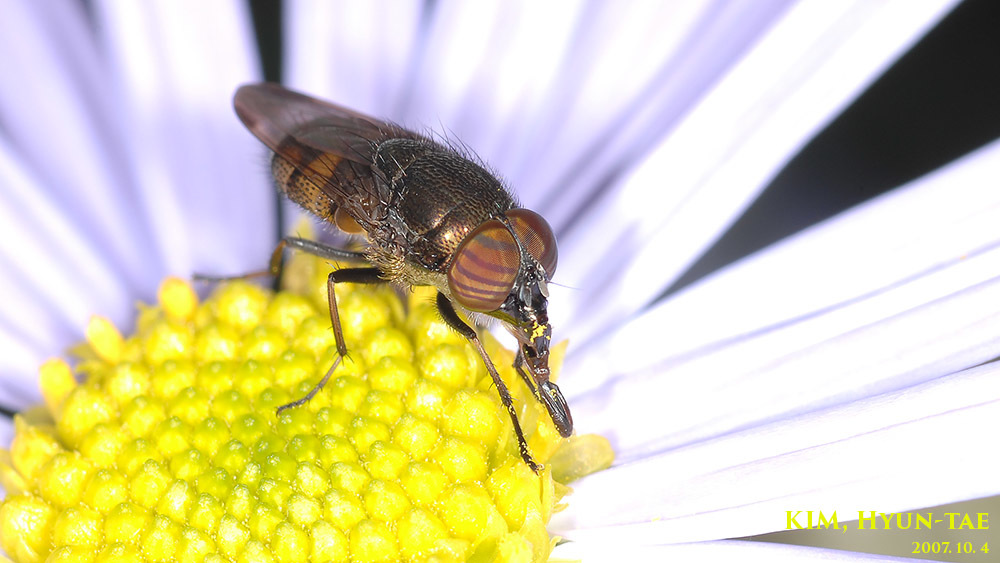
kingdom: Animalia
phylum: Arthropoda
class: Insecta
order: Diptera
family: Calliphoridae
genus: Rhinia
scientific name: Rhinia obsoleta
